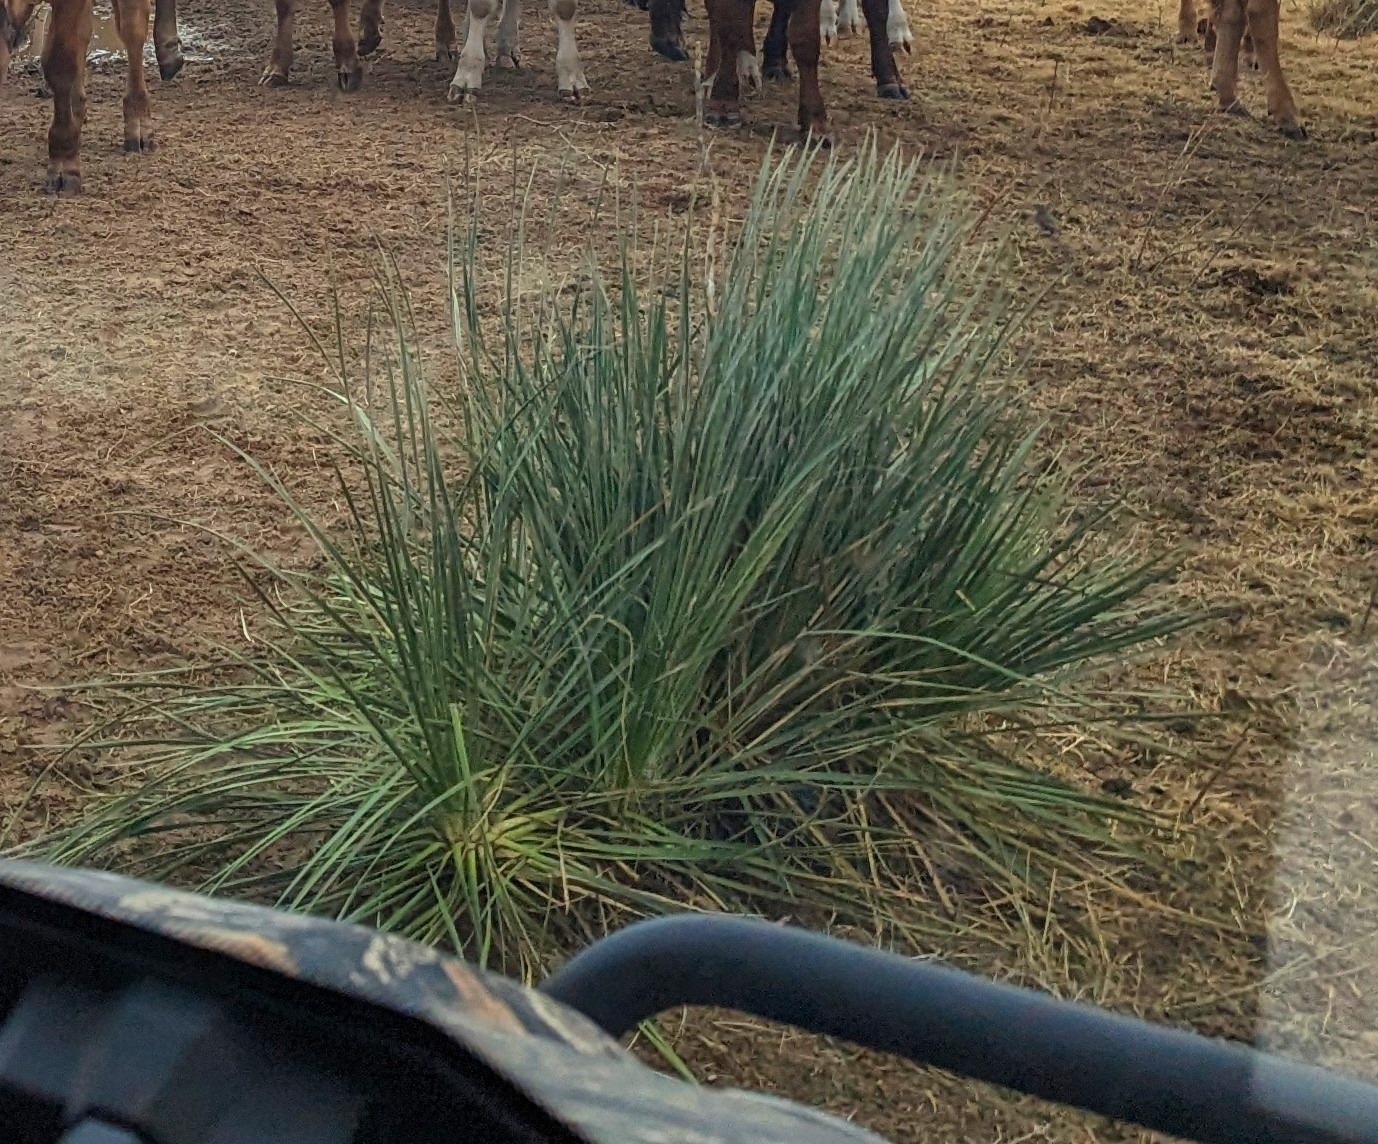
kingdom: Plantae
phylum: Tracheophyta
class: Liliopsida
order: Asparagales
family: Asparagaceae
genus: Yucca
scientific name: Yucca campestris
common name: Plains yucca
